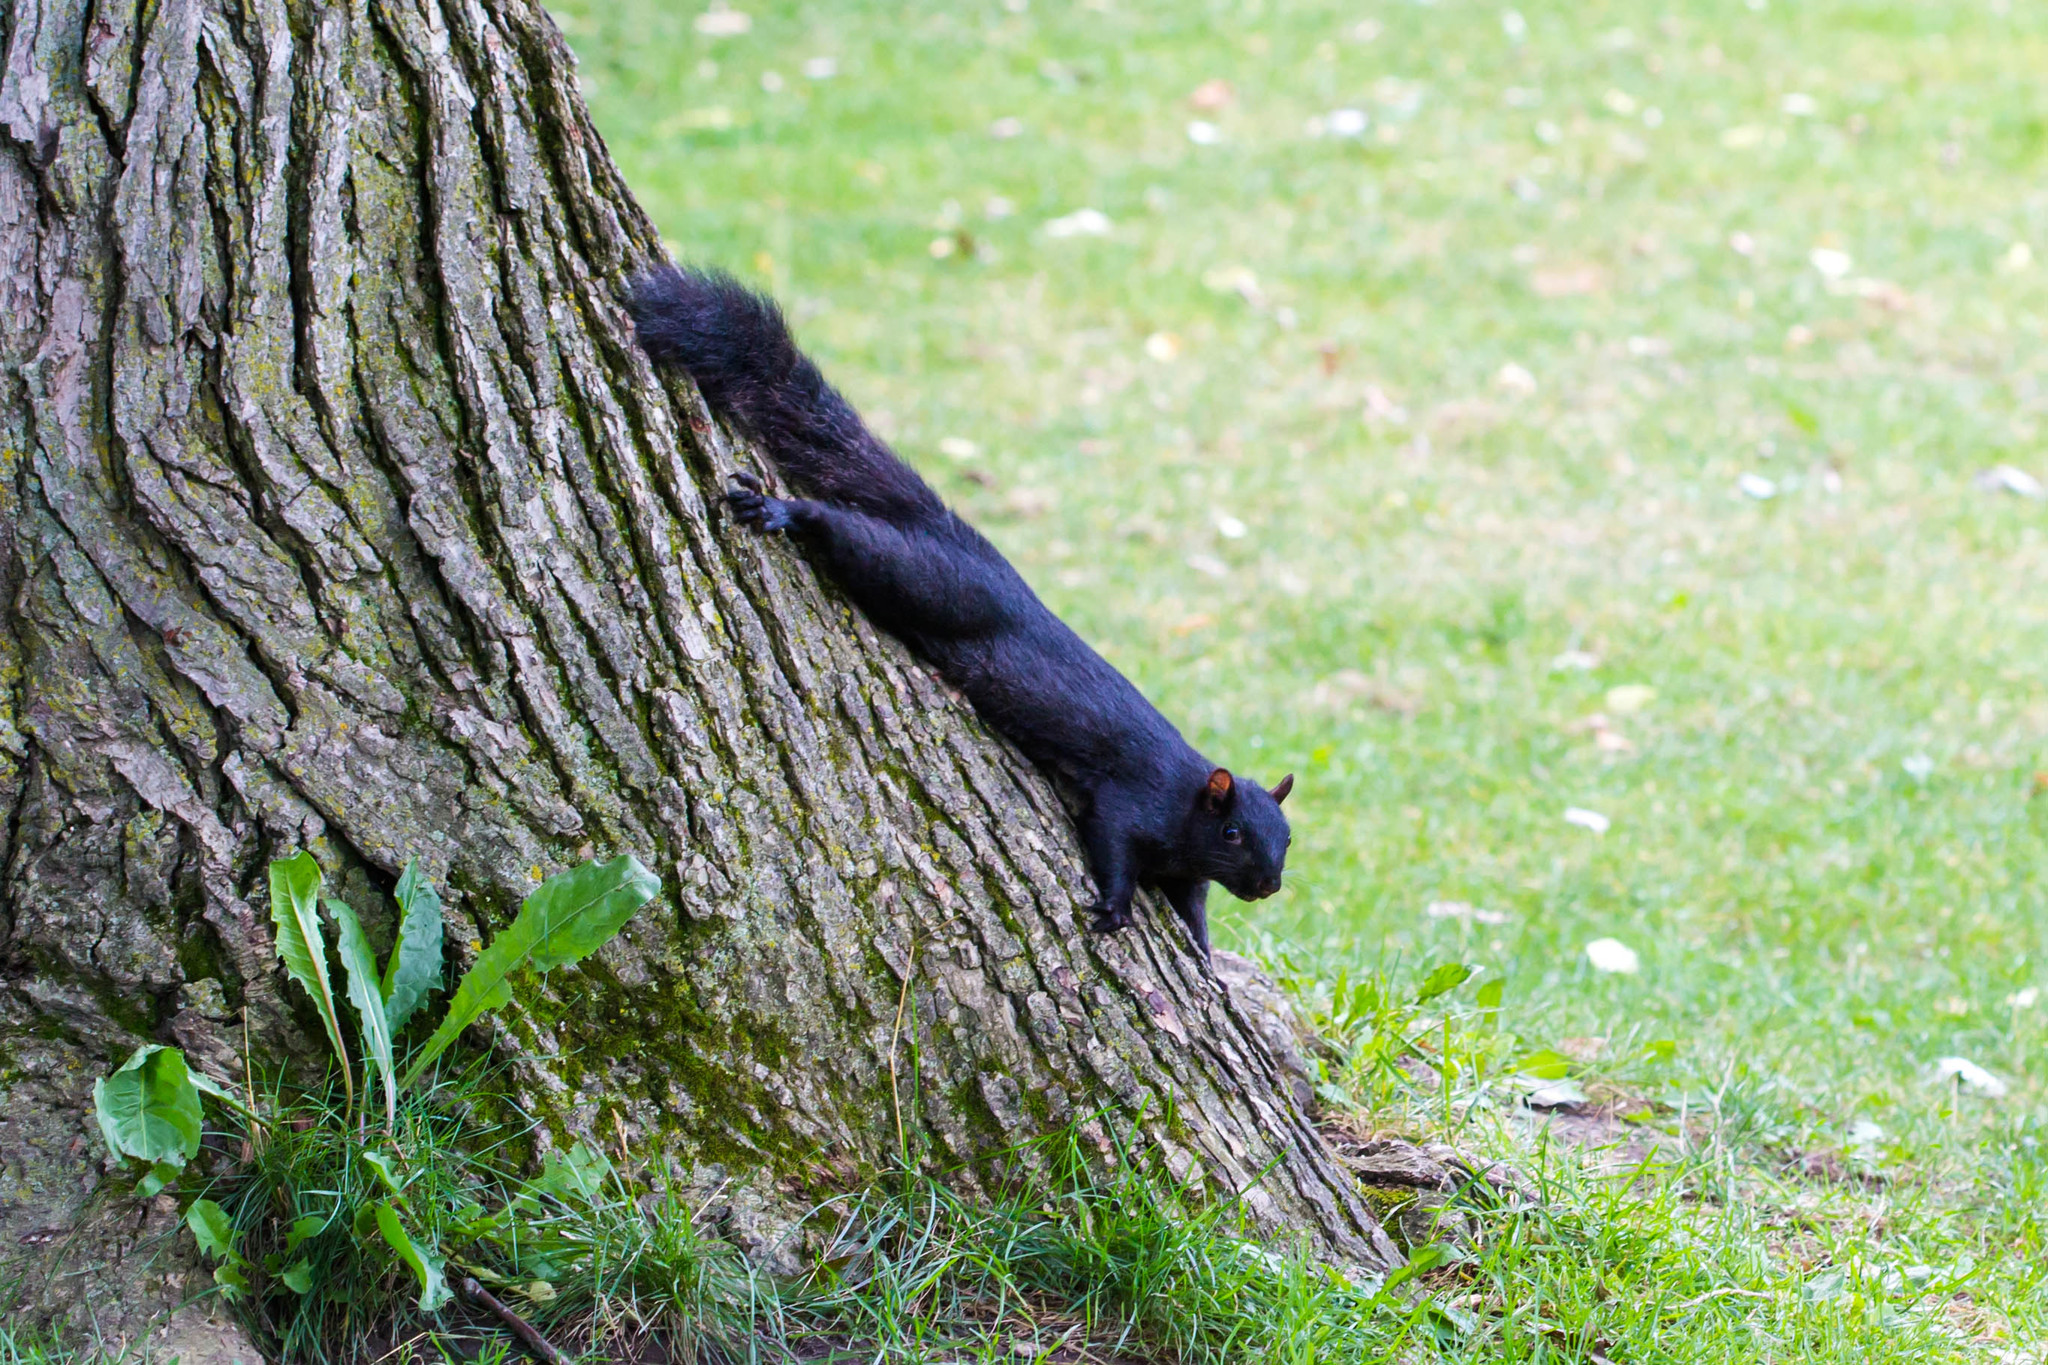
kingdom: Animalia
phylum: Chordata
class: Mammalia
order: Rodentia
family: Sciuridae
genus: Sciurus
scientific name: Sciurus carolinensis
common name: Eastern gray squirrel
